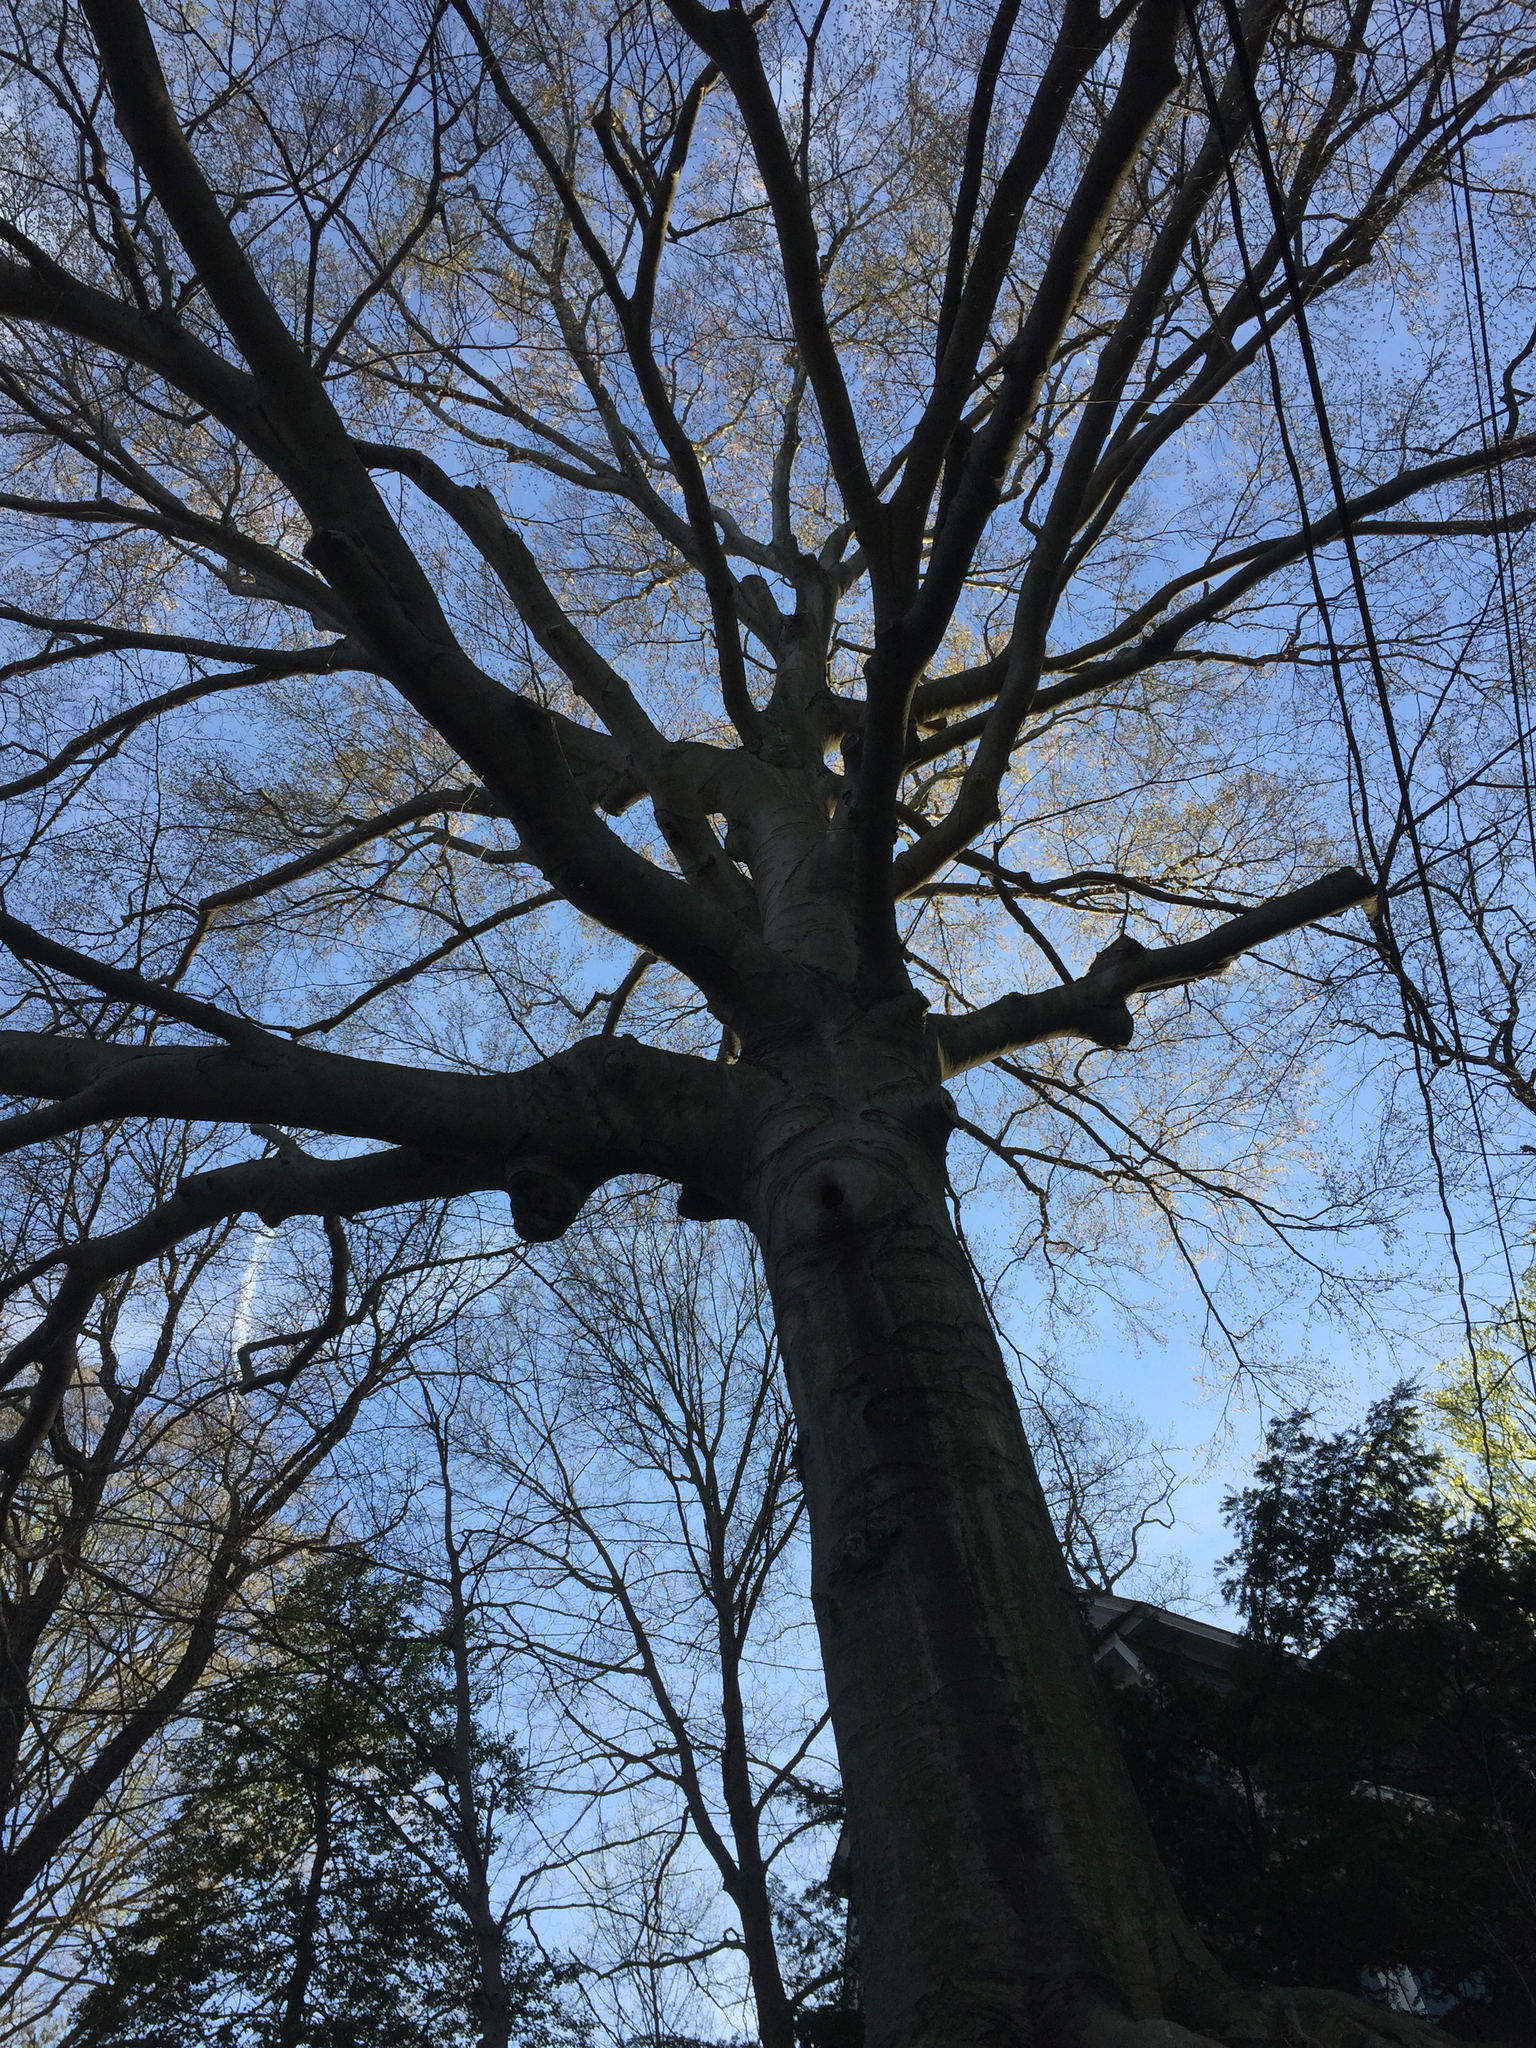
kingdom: Plantae
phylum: Tracheophyta
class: Magnoliopsida
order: Fagales
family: Fagaceae
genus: Fagus
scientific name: Fagus grandifolia
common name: American beech
